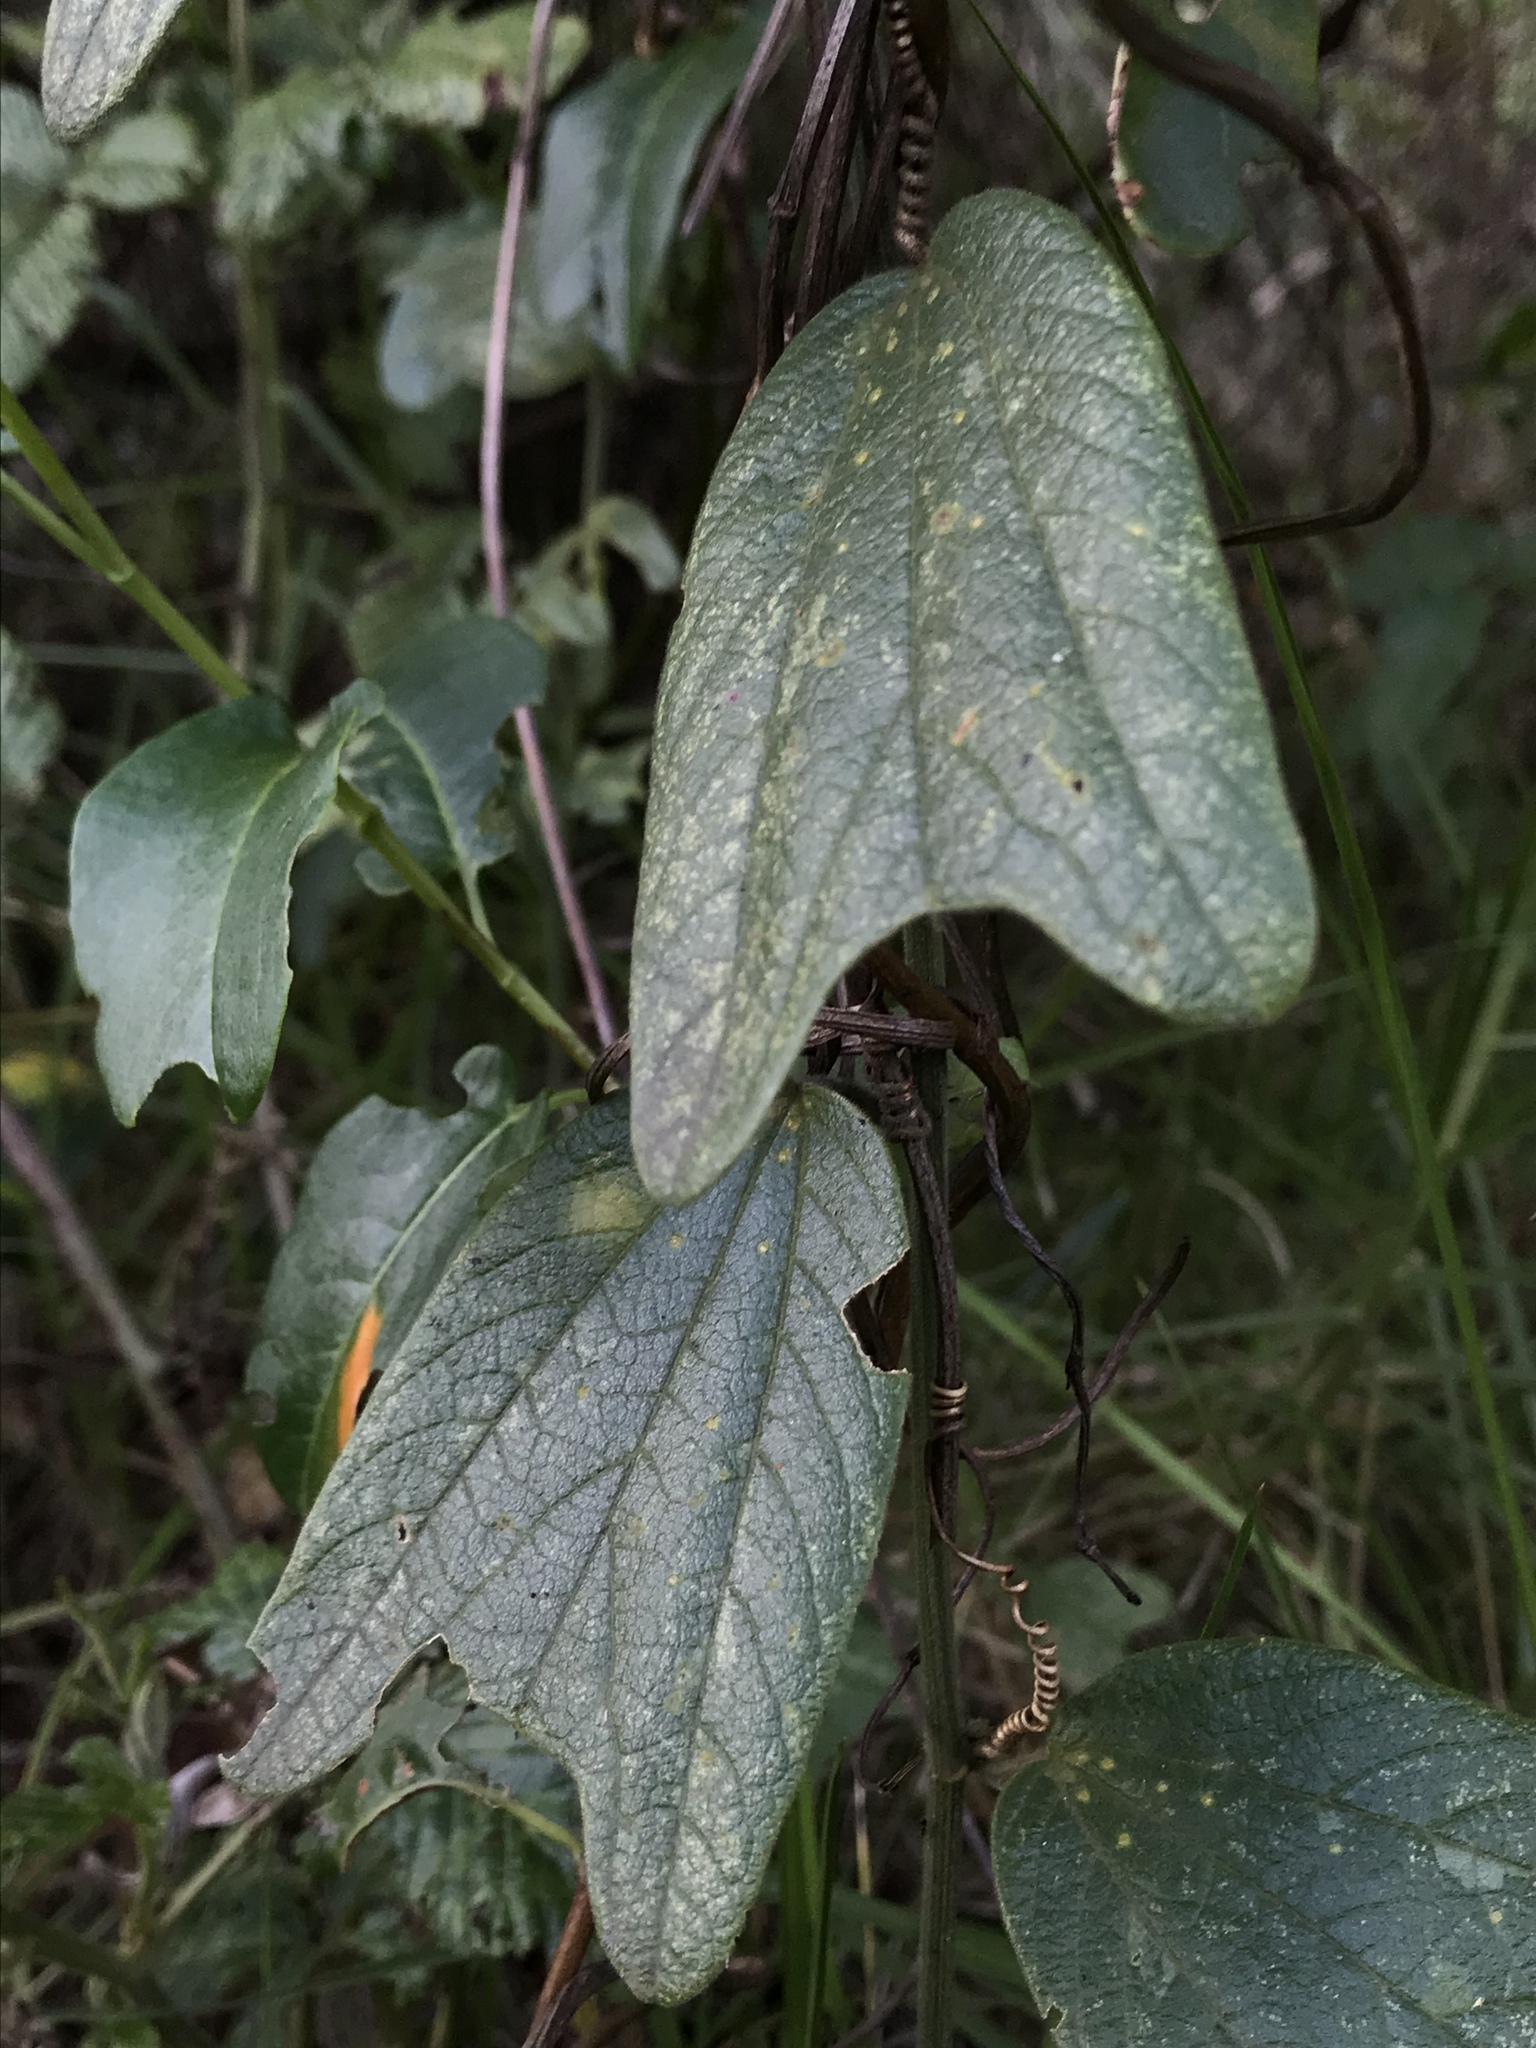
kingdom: Plantae
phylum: Tracheophyta
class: Magnoliopsida
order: Malpighiales
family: Passifloraceae
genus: Passiflora
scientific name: Passiflora bogotensis
